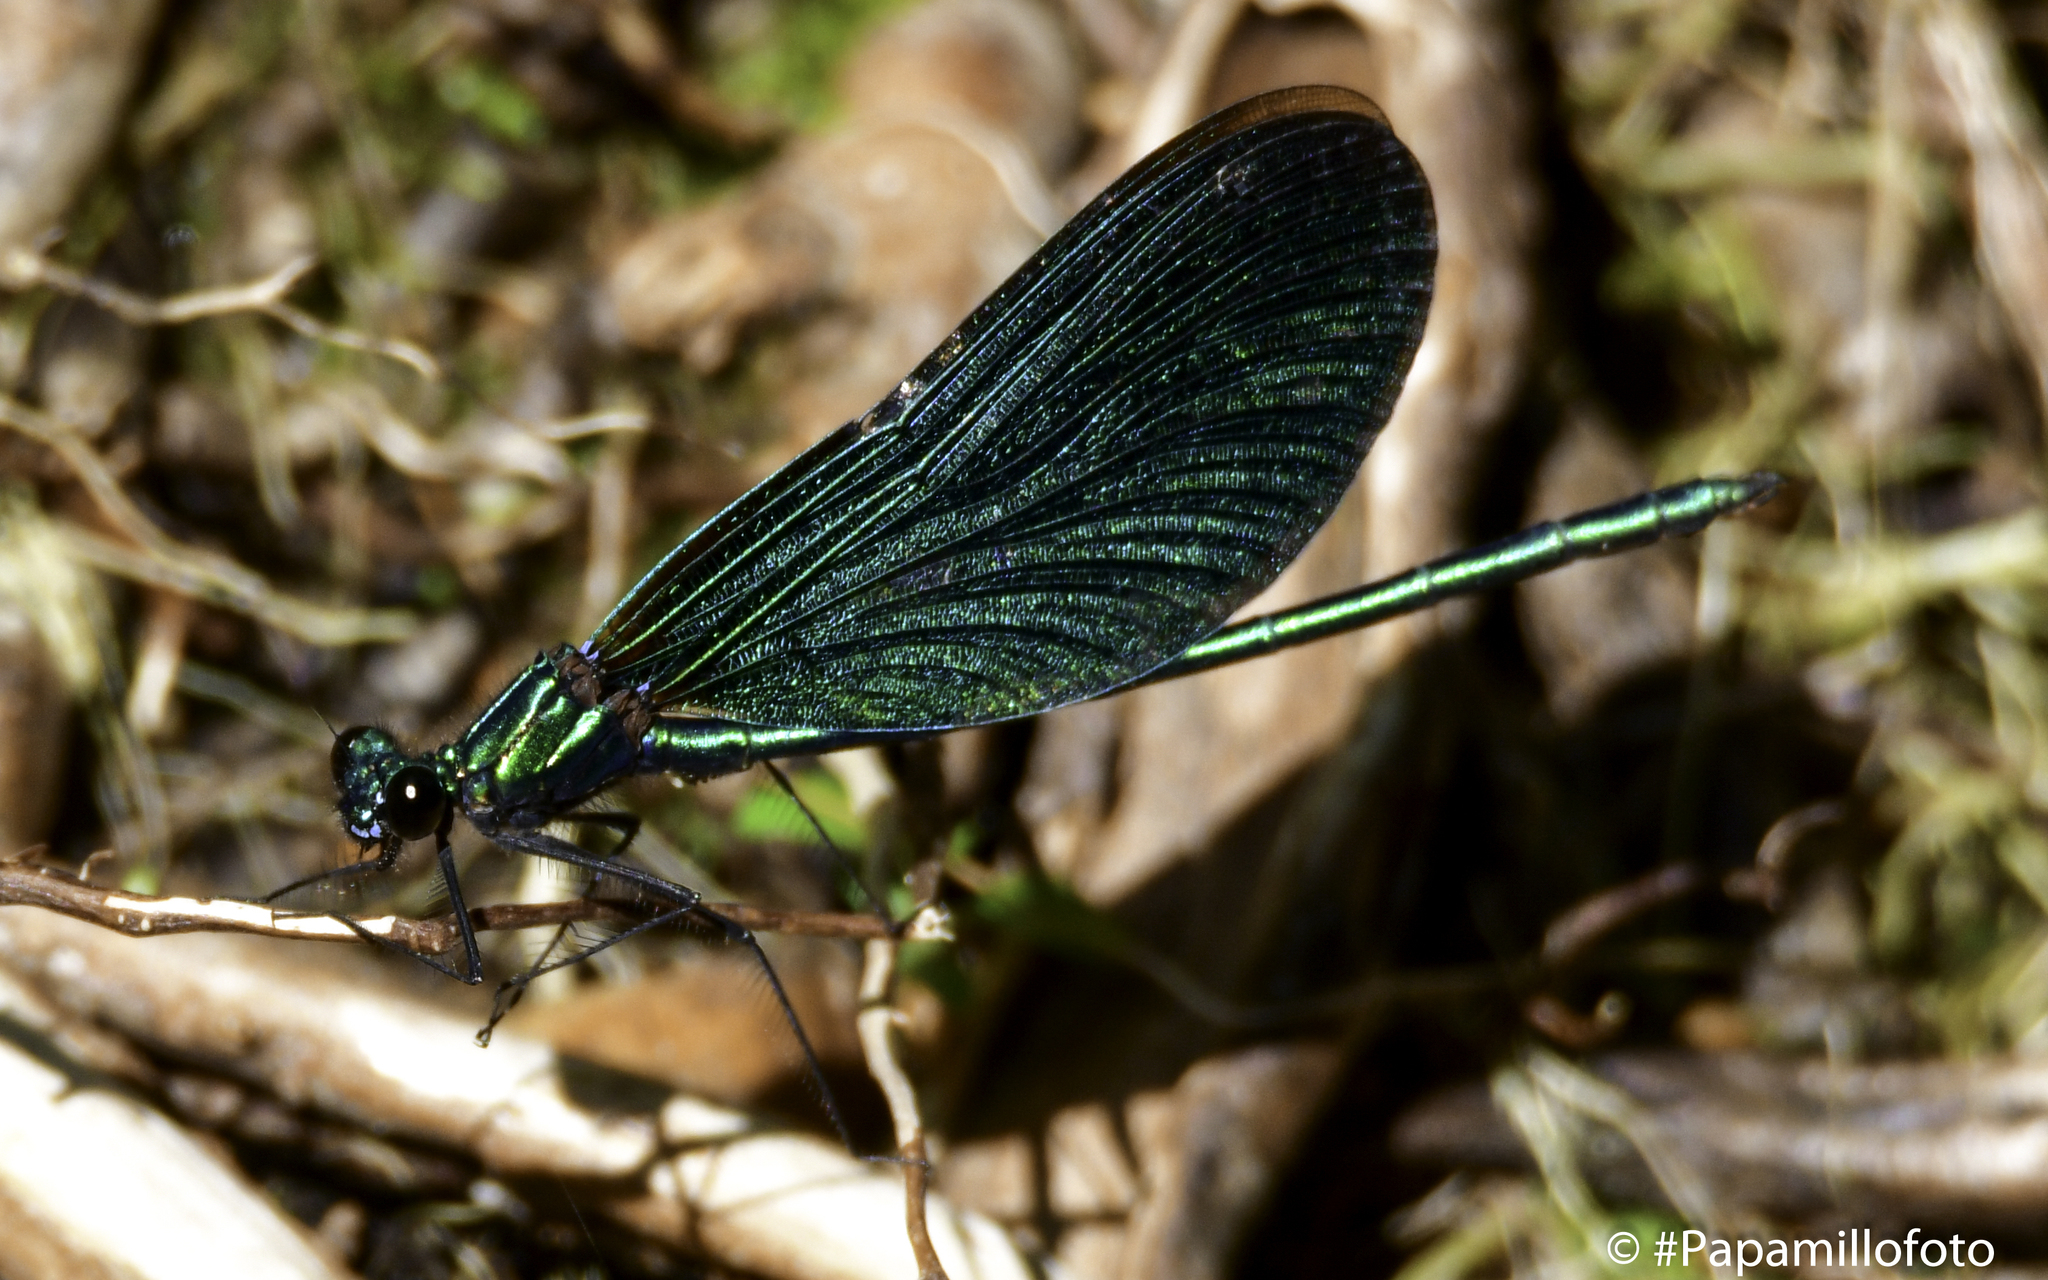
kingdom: Animalia
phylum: Arthropoda
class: Insecta
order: Odonata
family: Calopterygidae
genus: Calopteryx
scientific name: Calopteryx virgo
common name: Beautiful demoiselle
